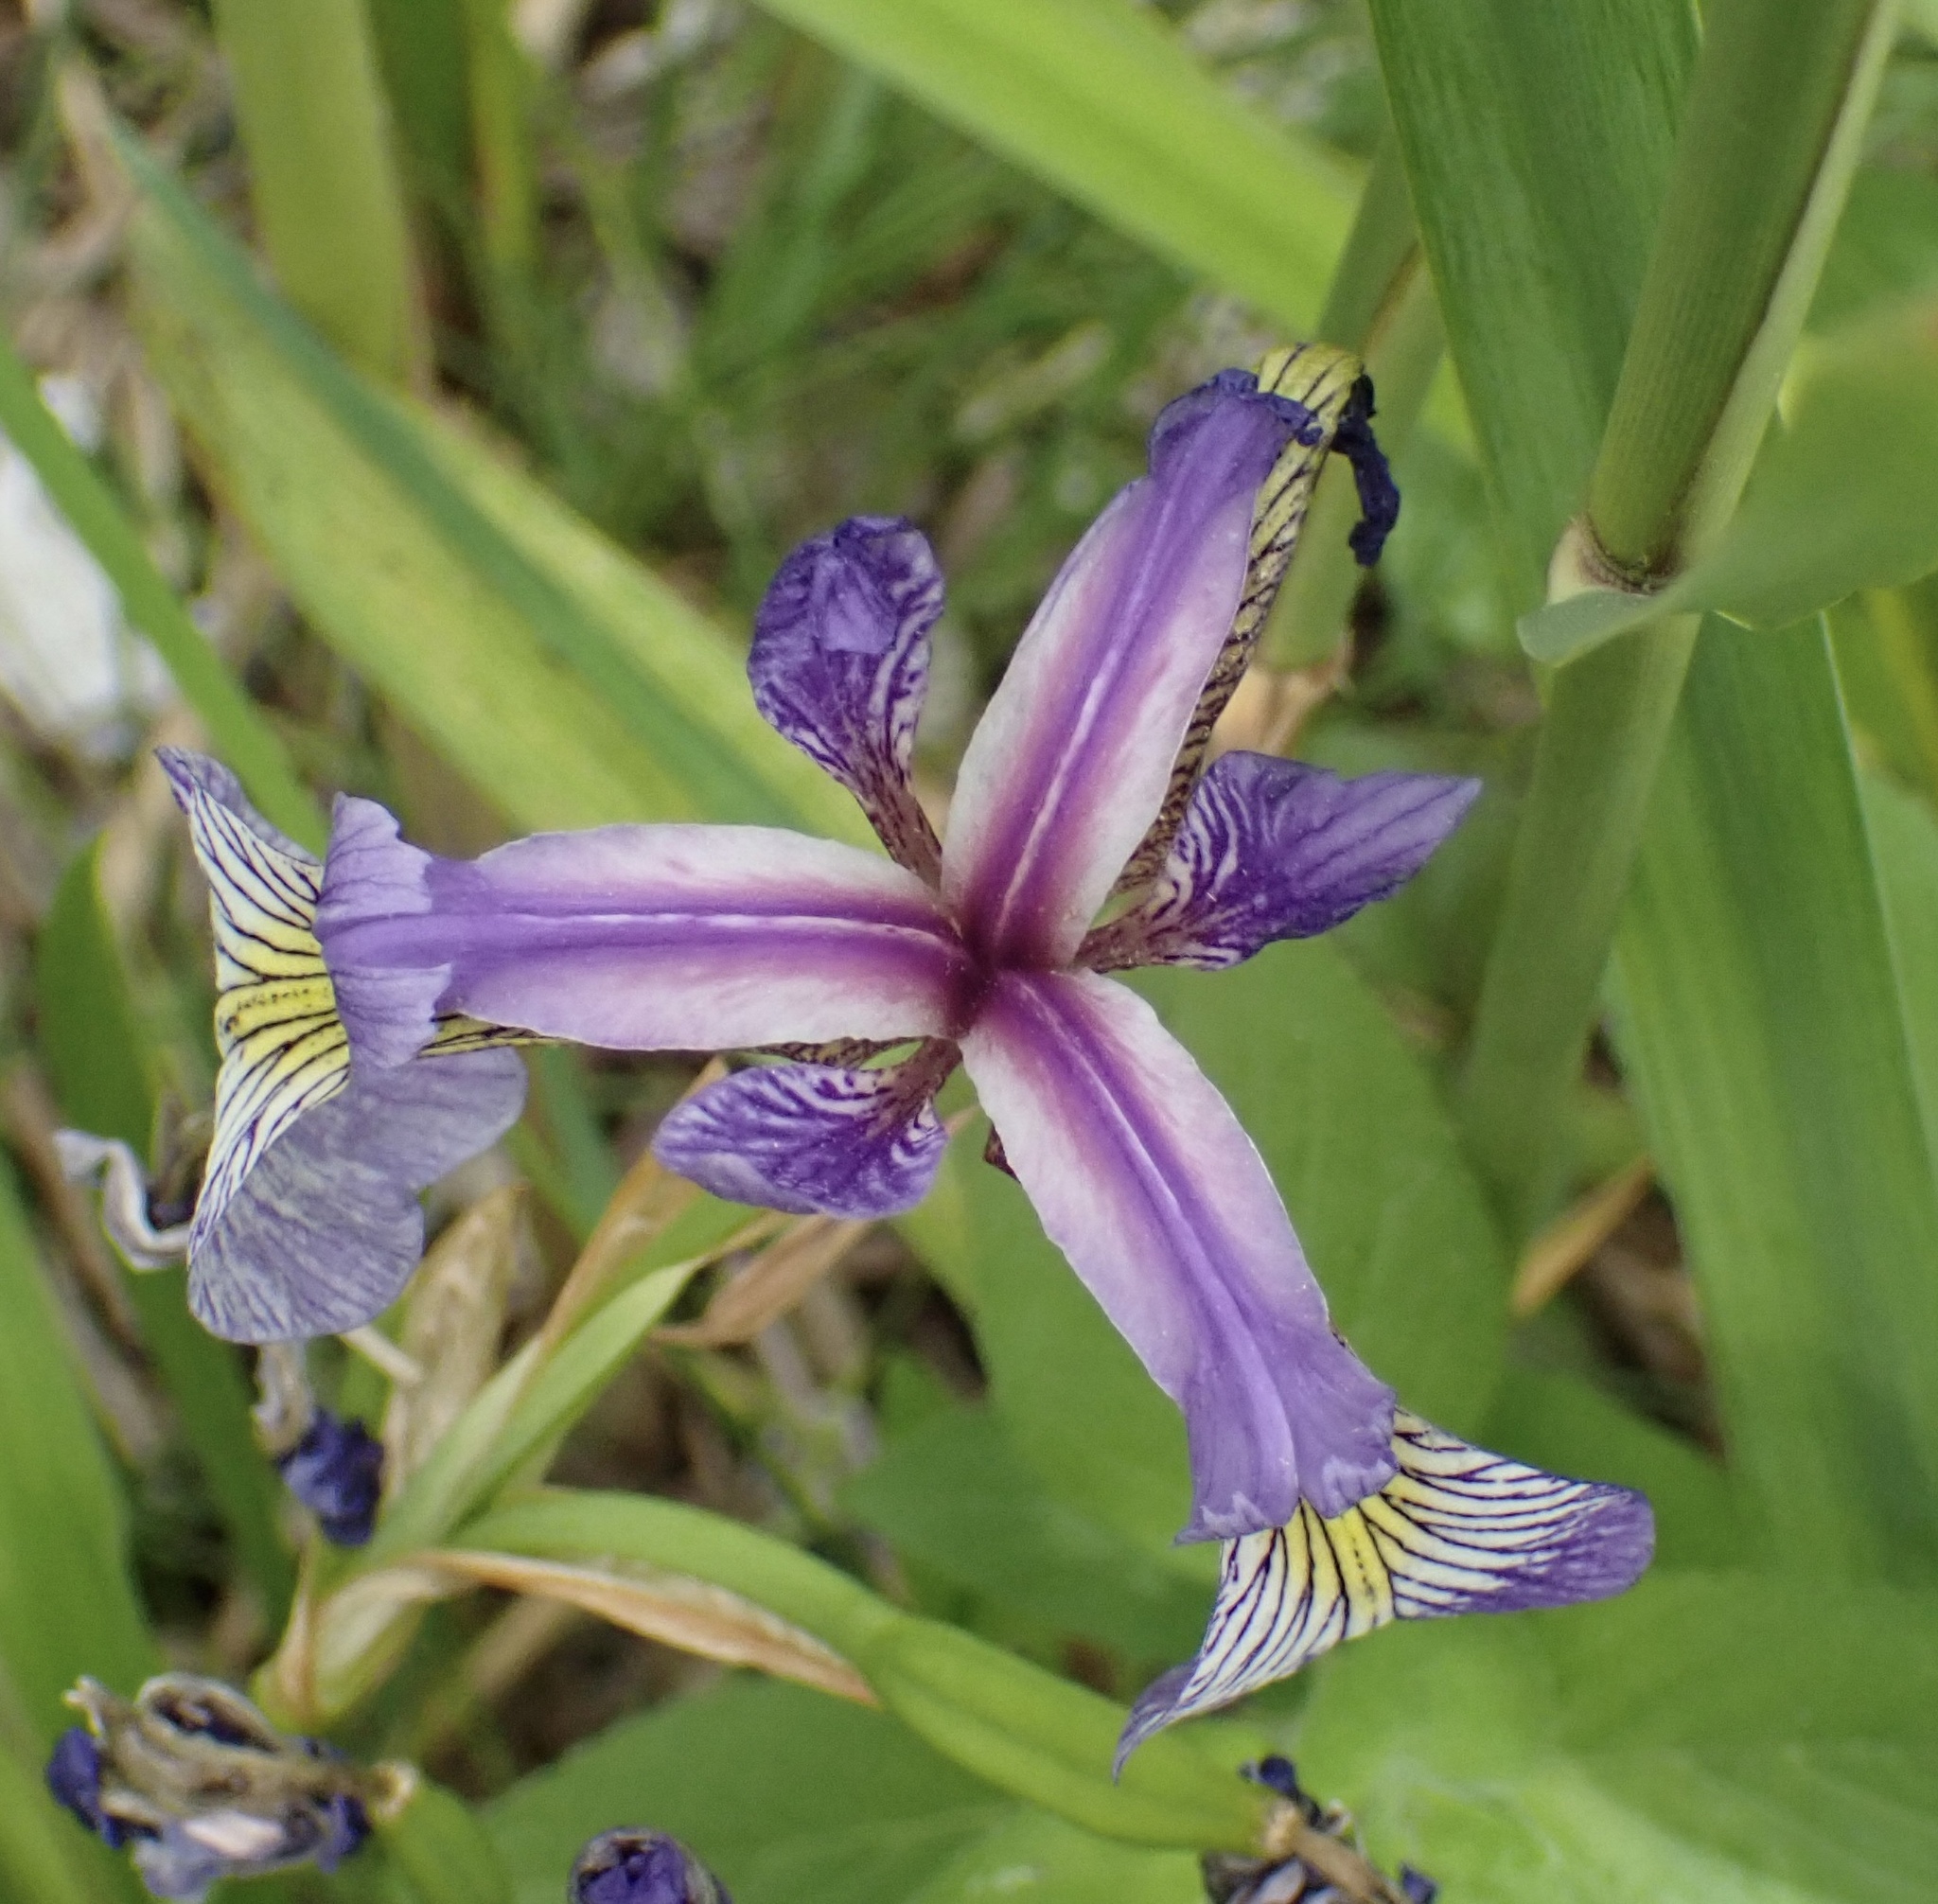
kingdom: Plantae
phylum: Tracheophyta
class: Liliopsida
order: Asparagales
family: Iridaceae
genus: Iris
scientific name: Iris versicolor
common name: Purple iris
